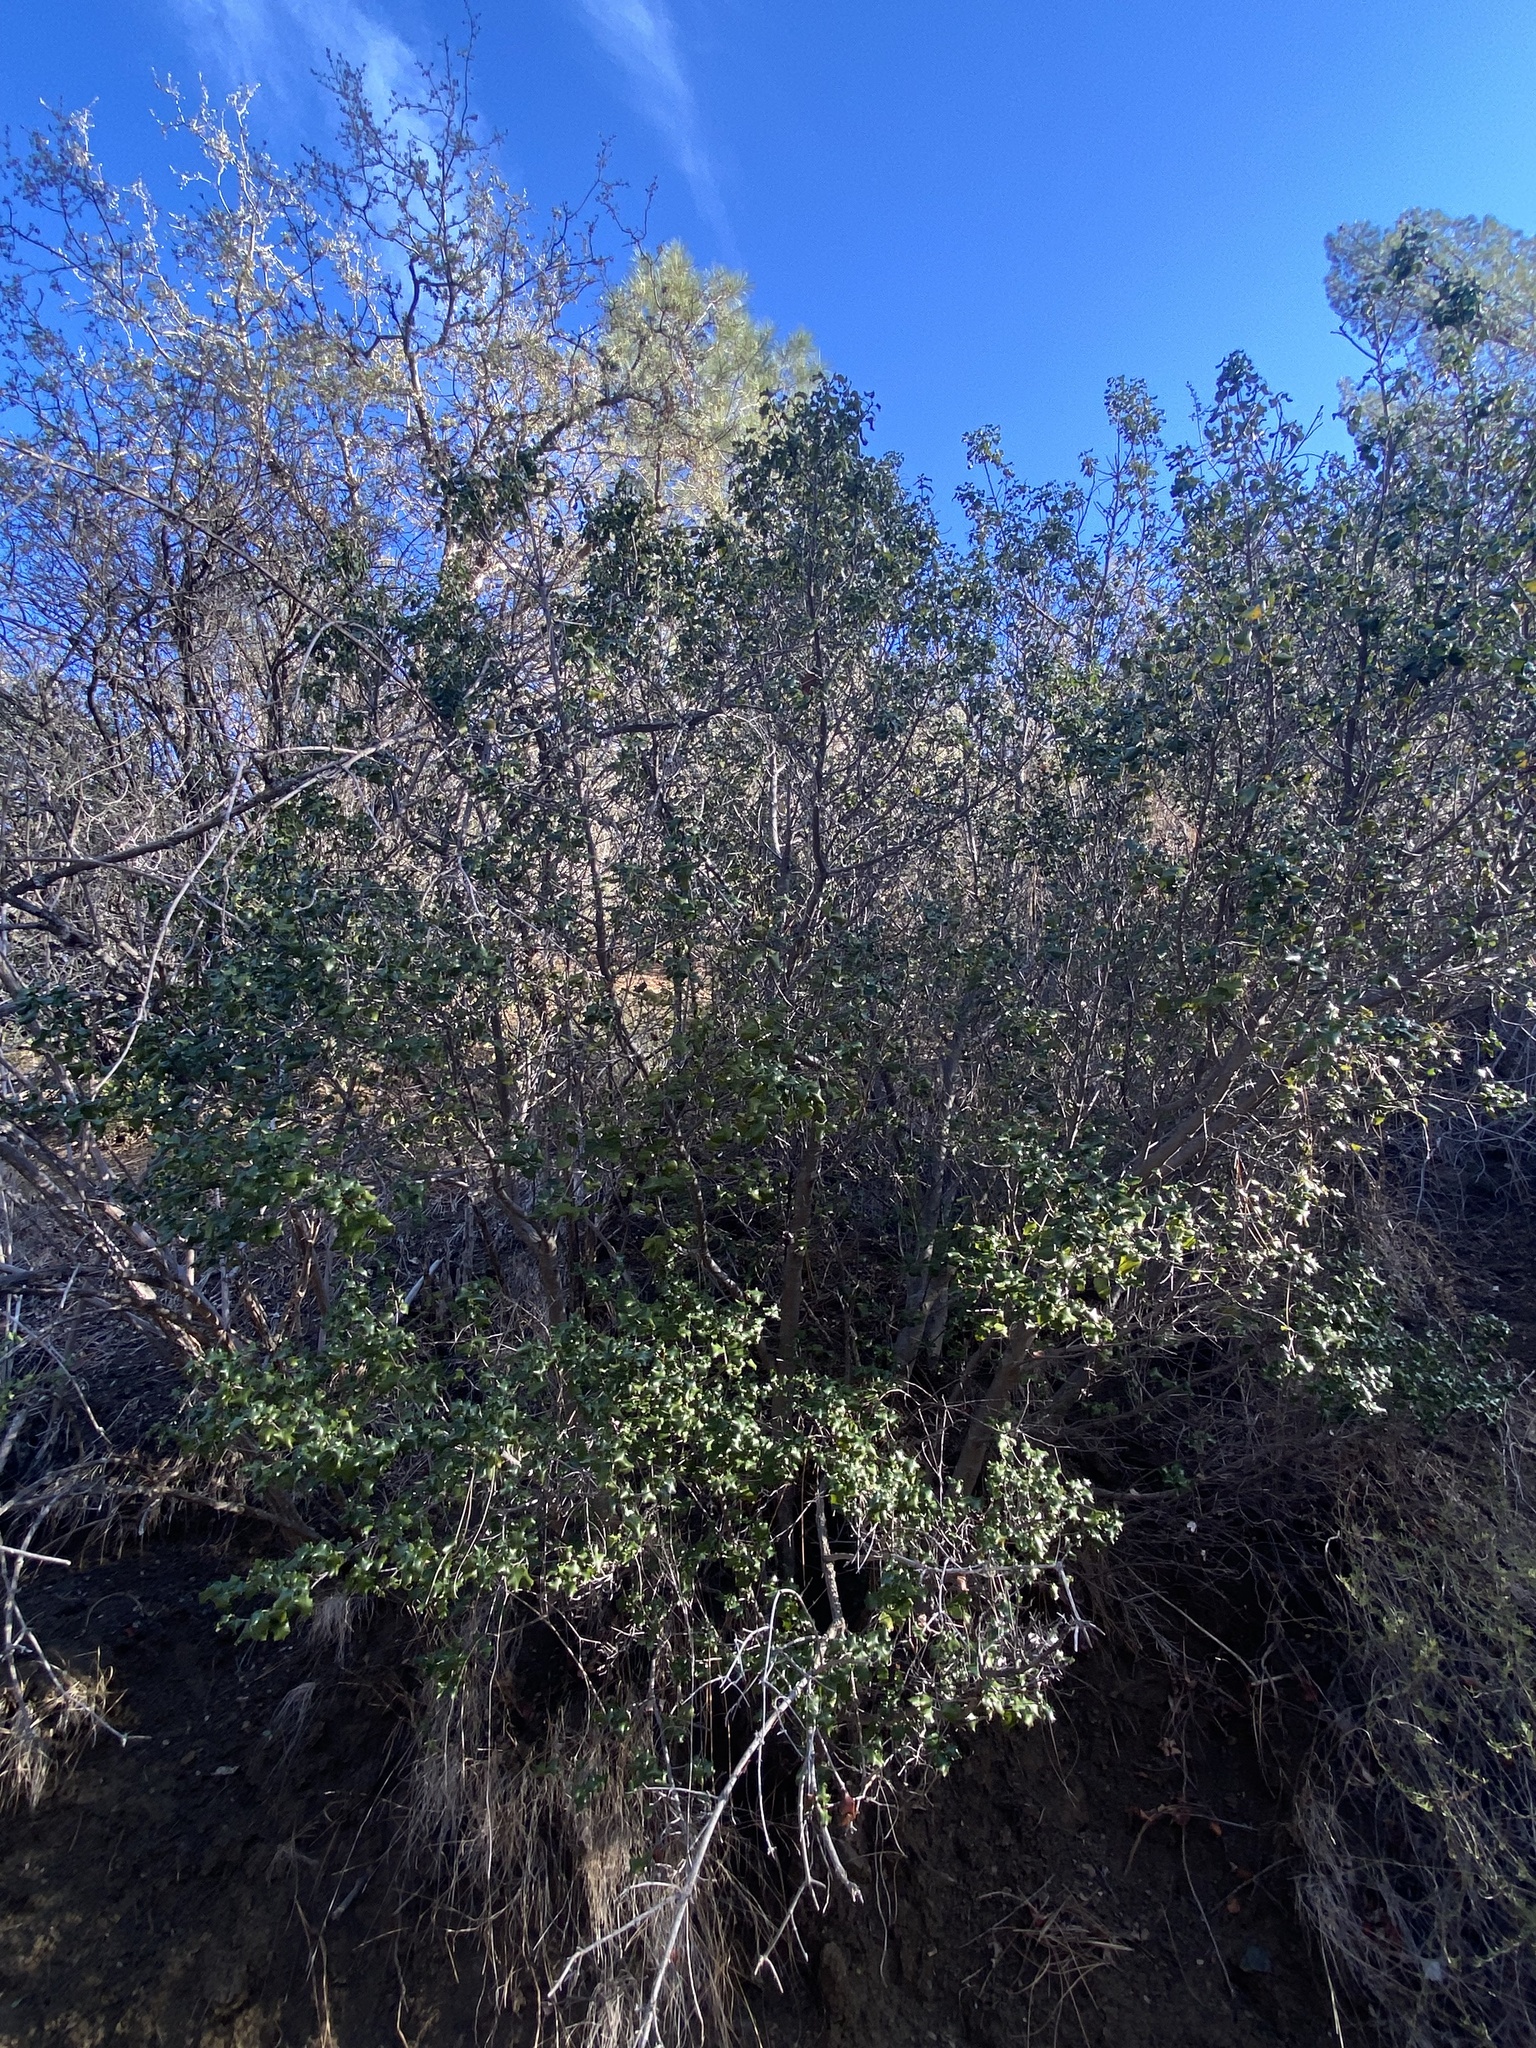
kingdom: Plantae
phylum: Tracheophyta
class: Magnoliopsida
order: Rosales
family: Rosaceae
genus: Prunus
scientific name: Prunus ilicifolia
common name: Hollyleaf cherry
